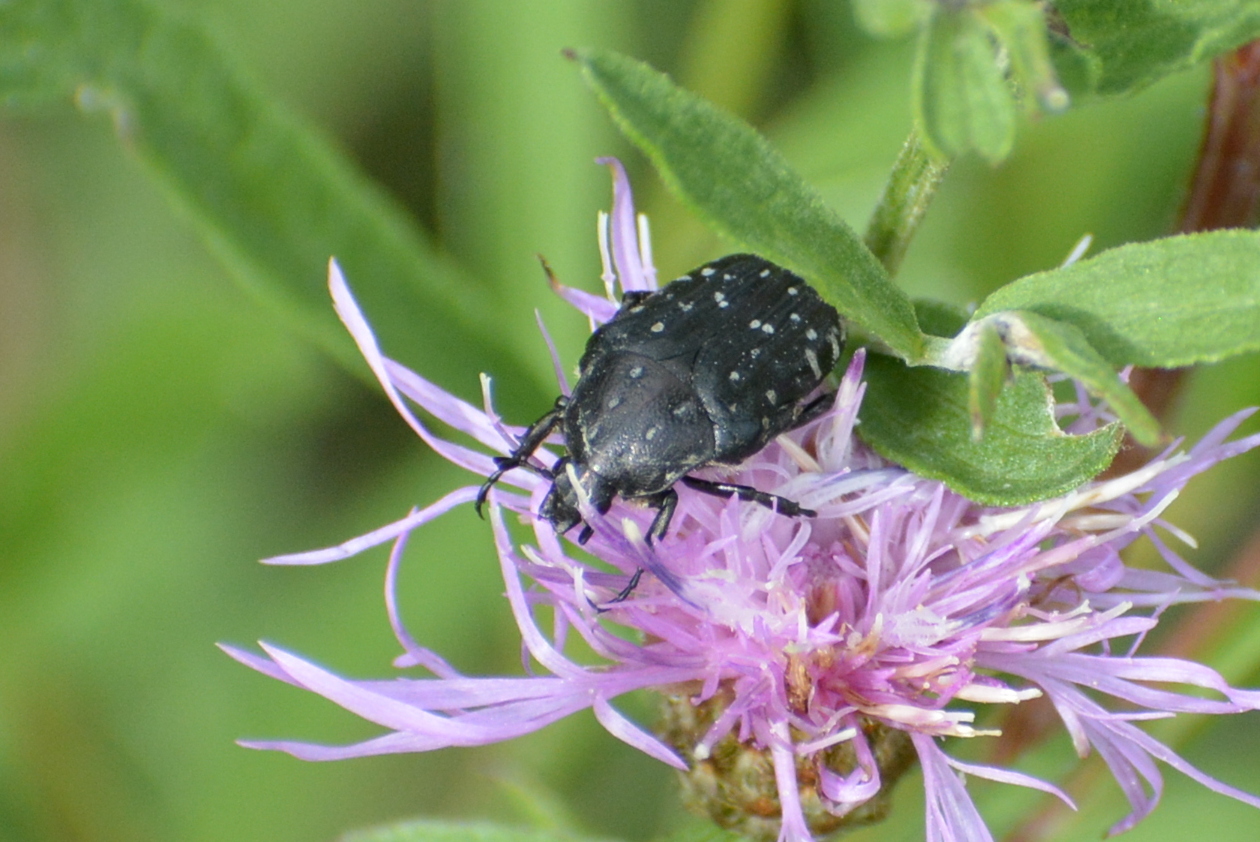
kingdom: Animalia
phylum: Arthropoda
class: Insecta
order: Coleoptera
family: Scarabaeidae
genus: Oxythyrea
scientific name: Oxythyrea funesta
